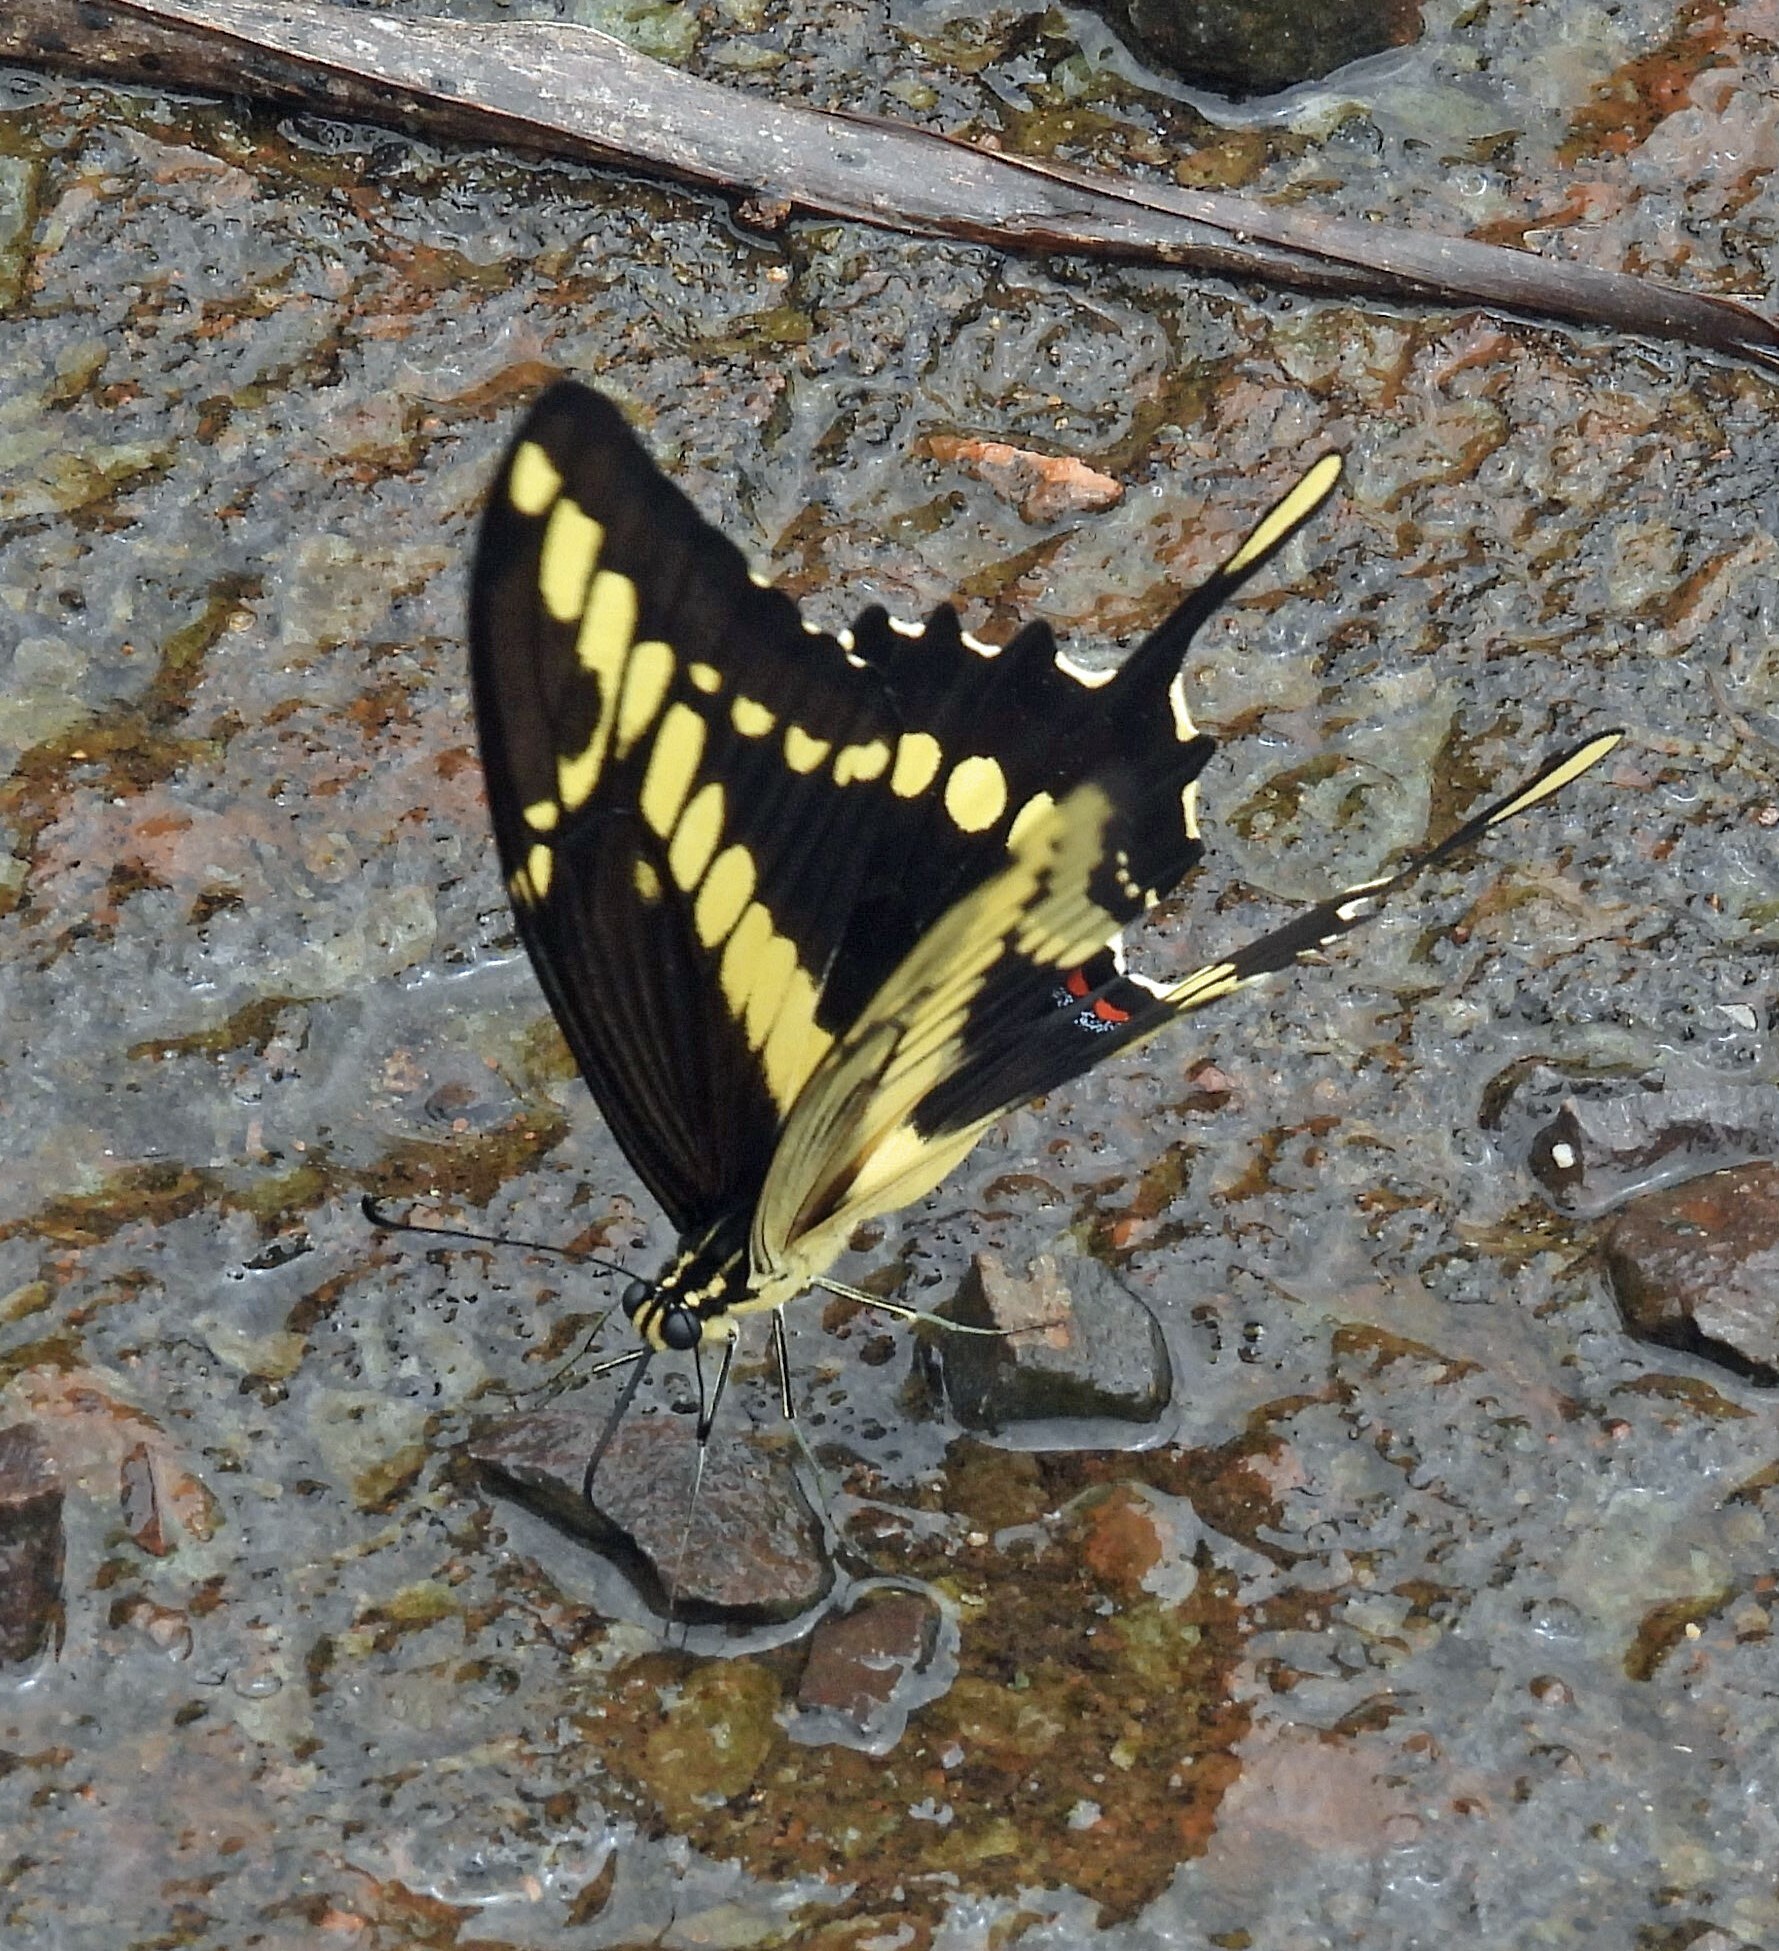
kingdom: Animalia
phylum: Arthropoda
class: Insecta
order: Lepidoptera
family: Papilionidae
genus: Papilio
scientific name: Papilio thoas
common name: King swallowtail
